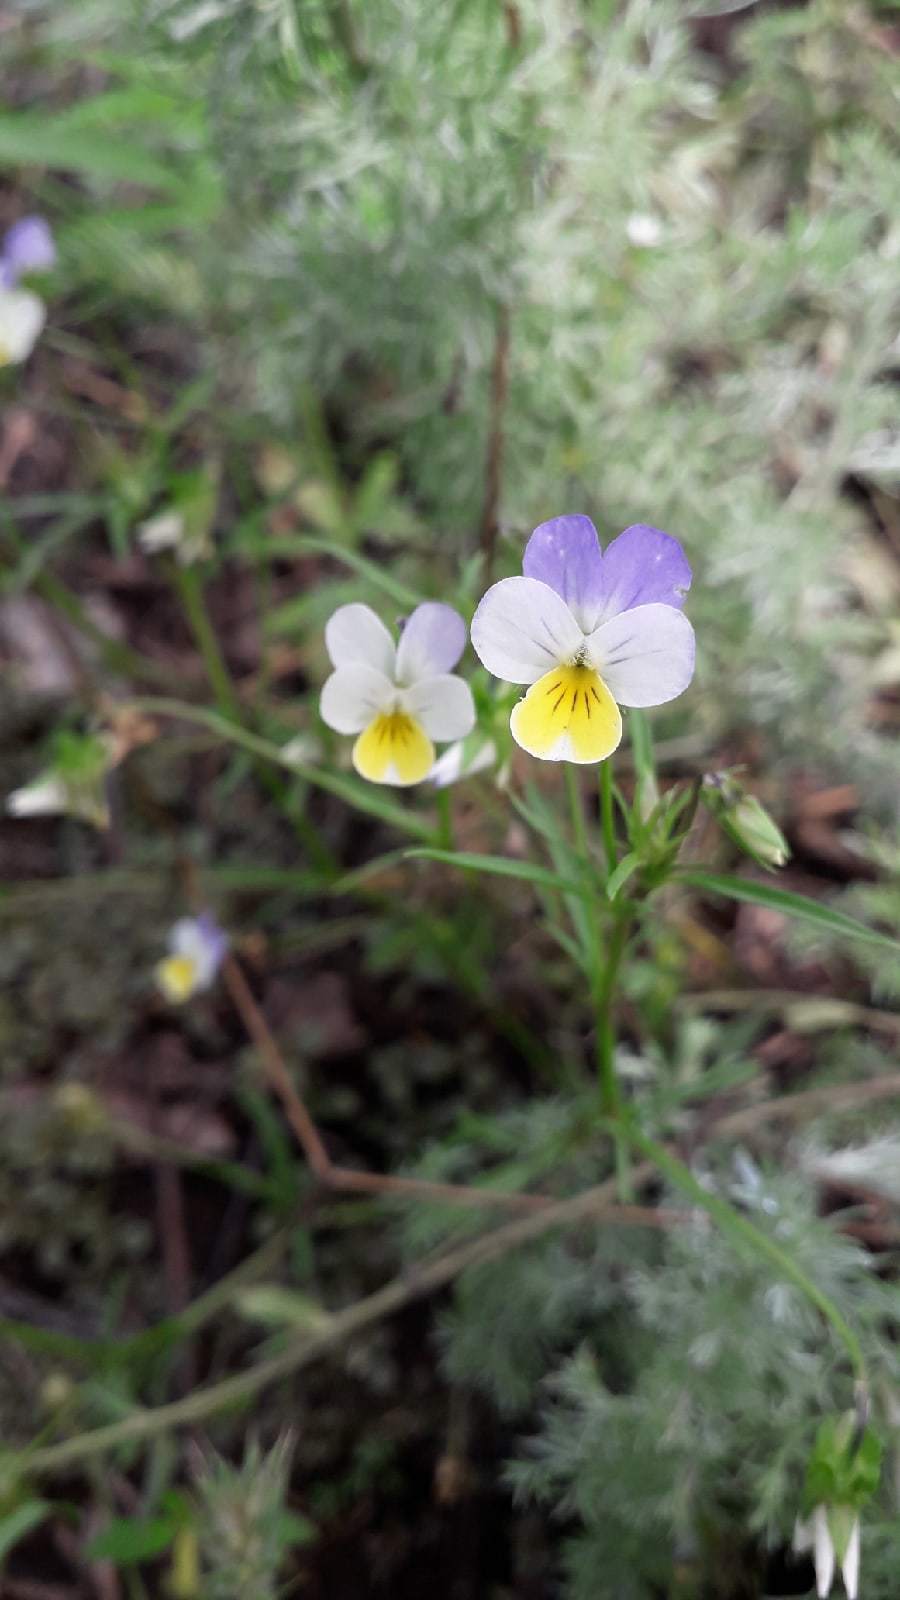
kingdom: Plantae
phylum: Tracheophyta
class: Magnoliopsida
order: Malpighiales
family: Violaceae
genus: Viola
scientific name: Viola tricolor
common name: Pansy
